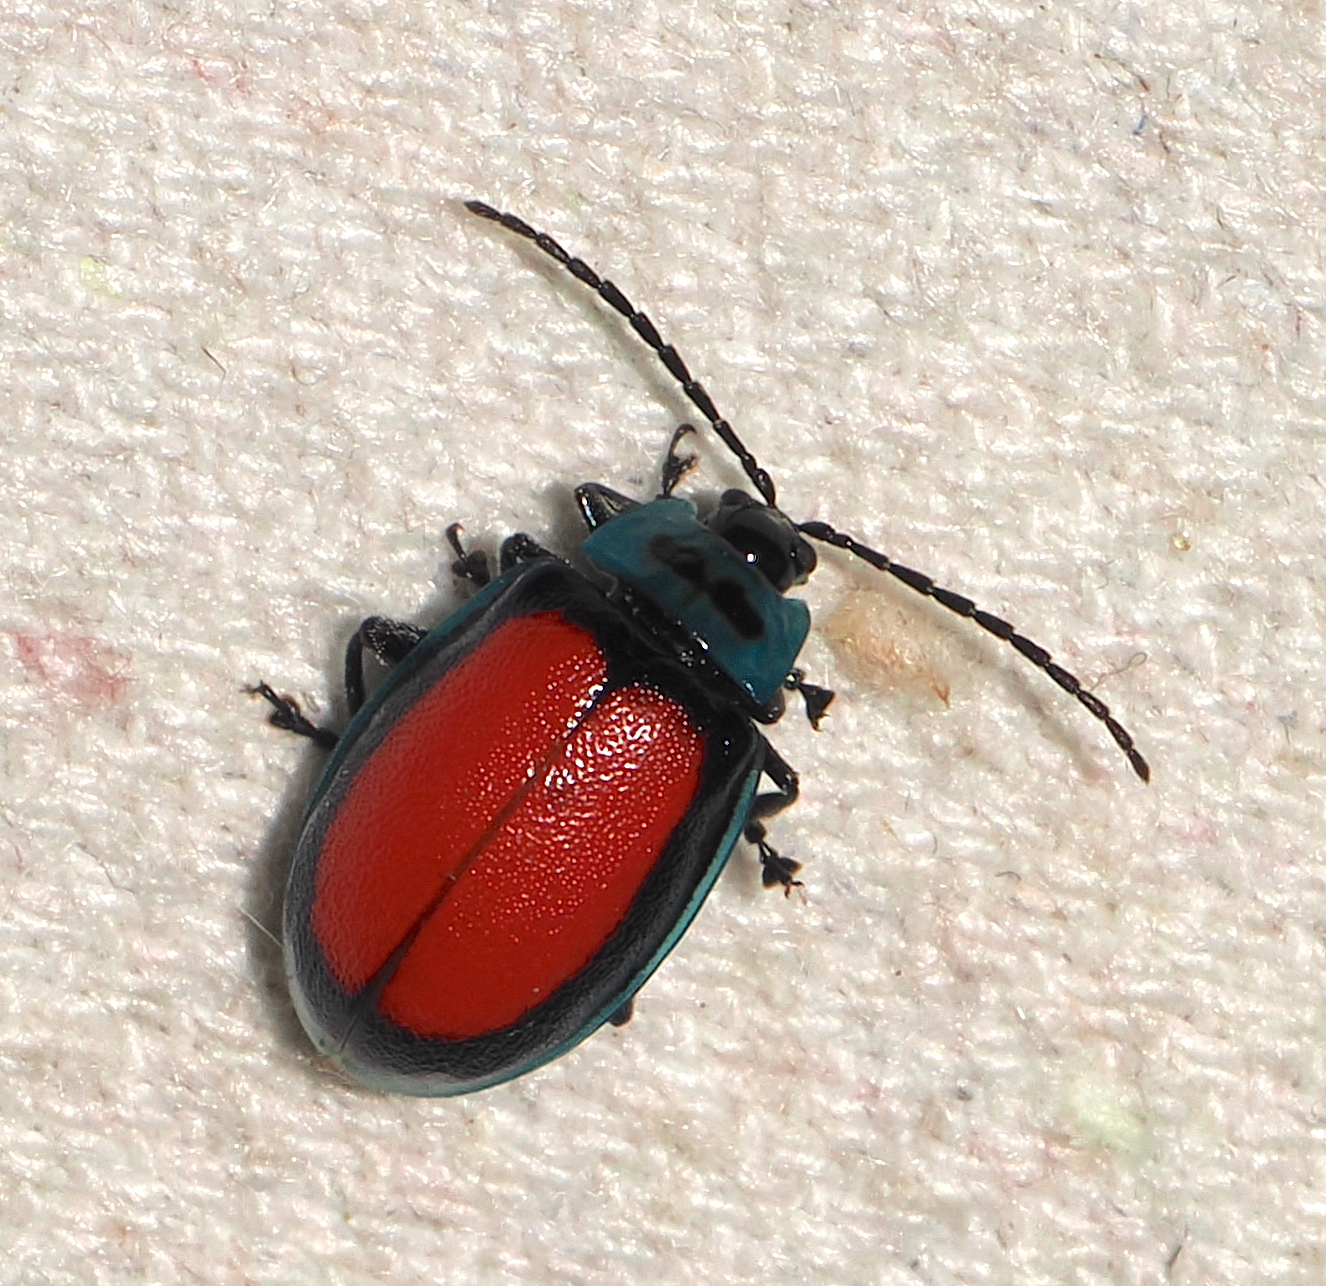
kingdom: Animalia
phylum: Arthropoda
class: Insecta
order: Coleoptera
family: Chrysomelidae
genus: Aspicela
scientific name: Aspicela
